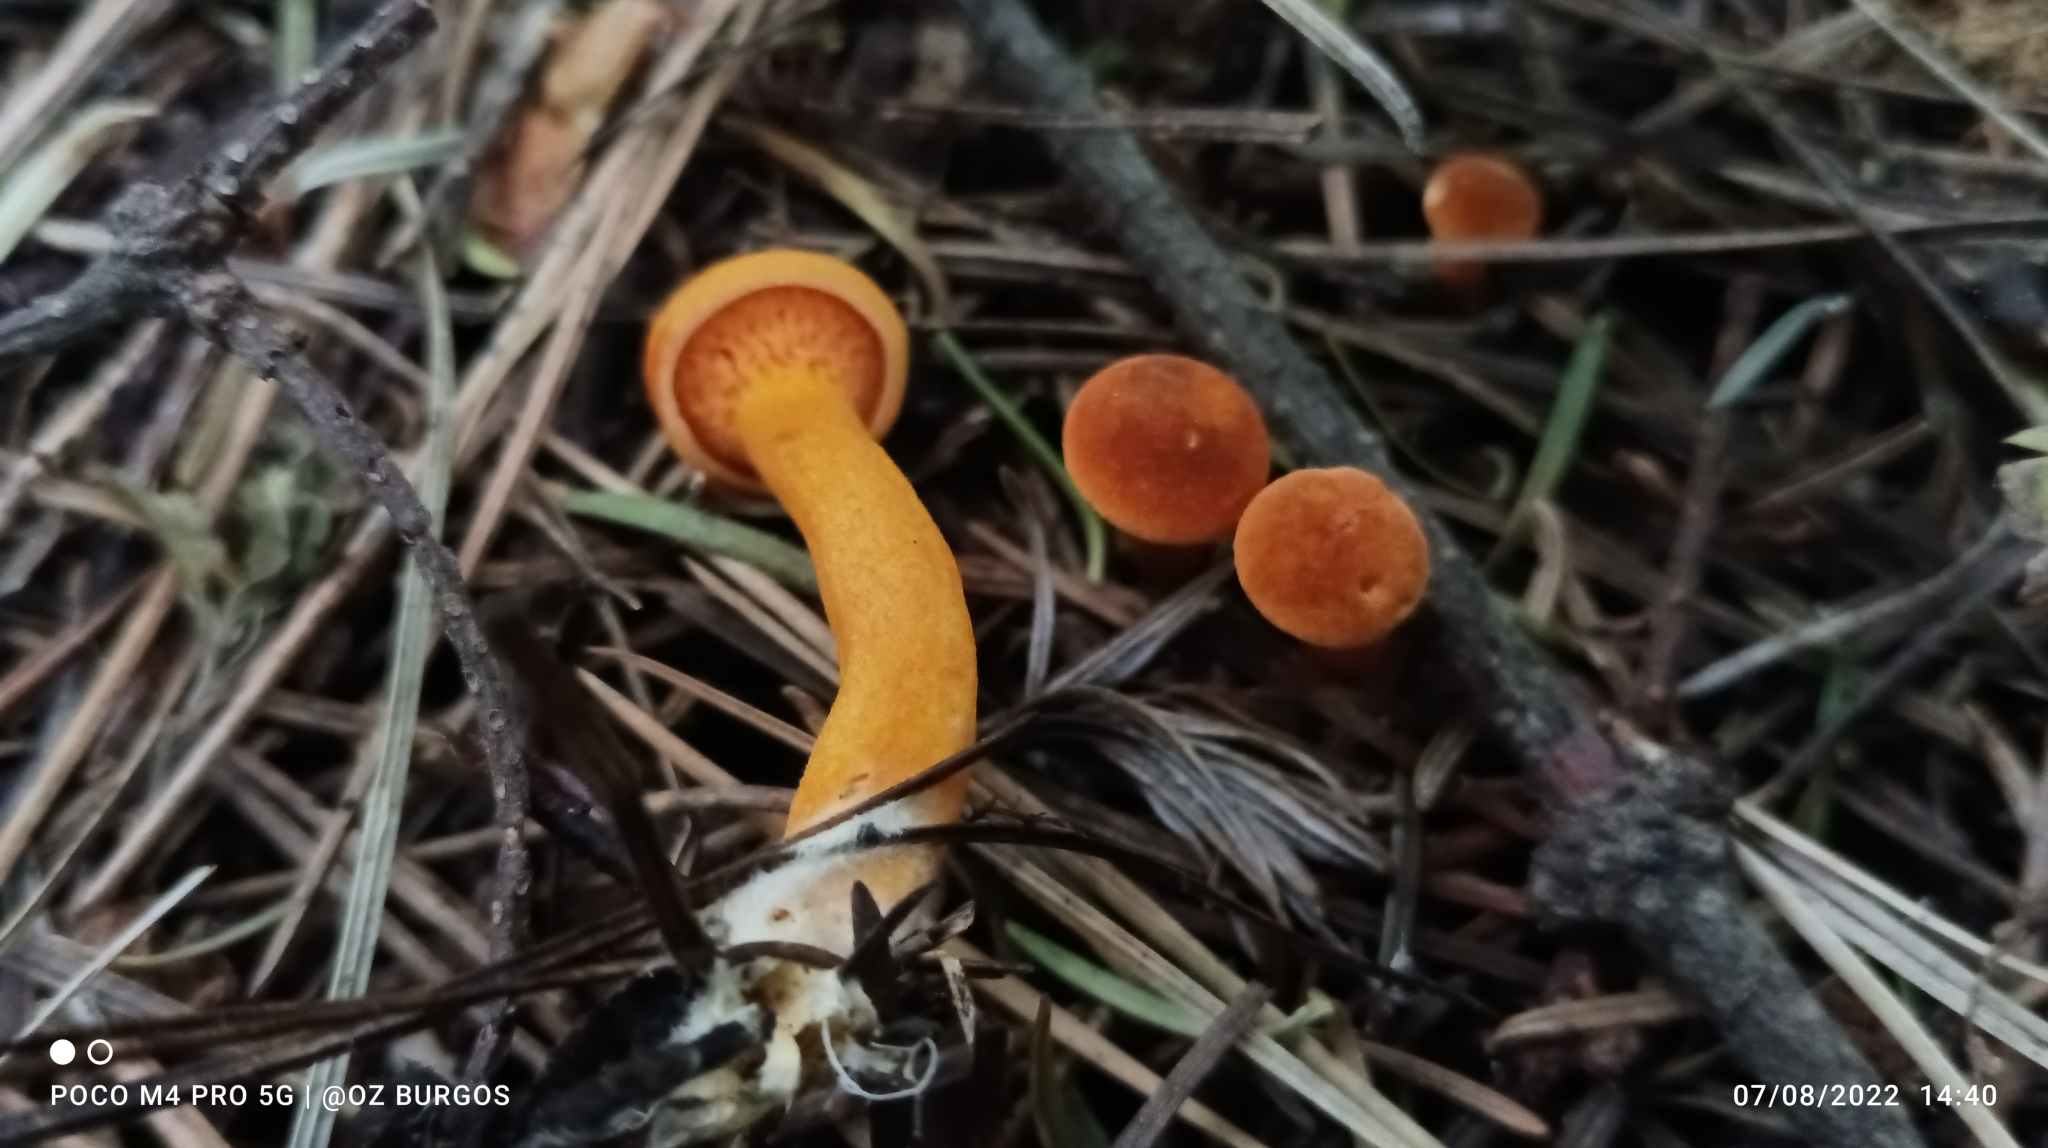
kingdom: Fungi
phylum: Basidiomycota
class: Agaricomycetes
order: Boletales
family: Hygrophoropsidaceae
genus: Hygrophoropsis
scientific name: Hygrophoropsis aurantiaca
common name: False chanterelle
